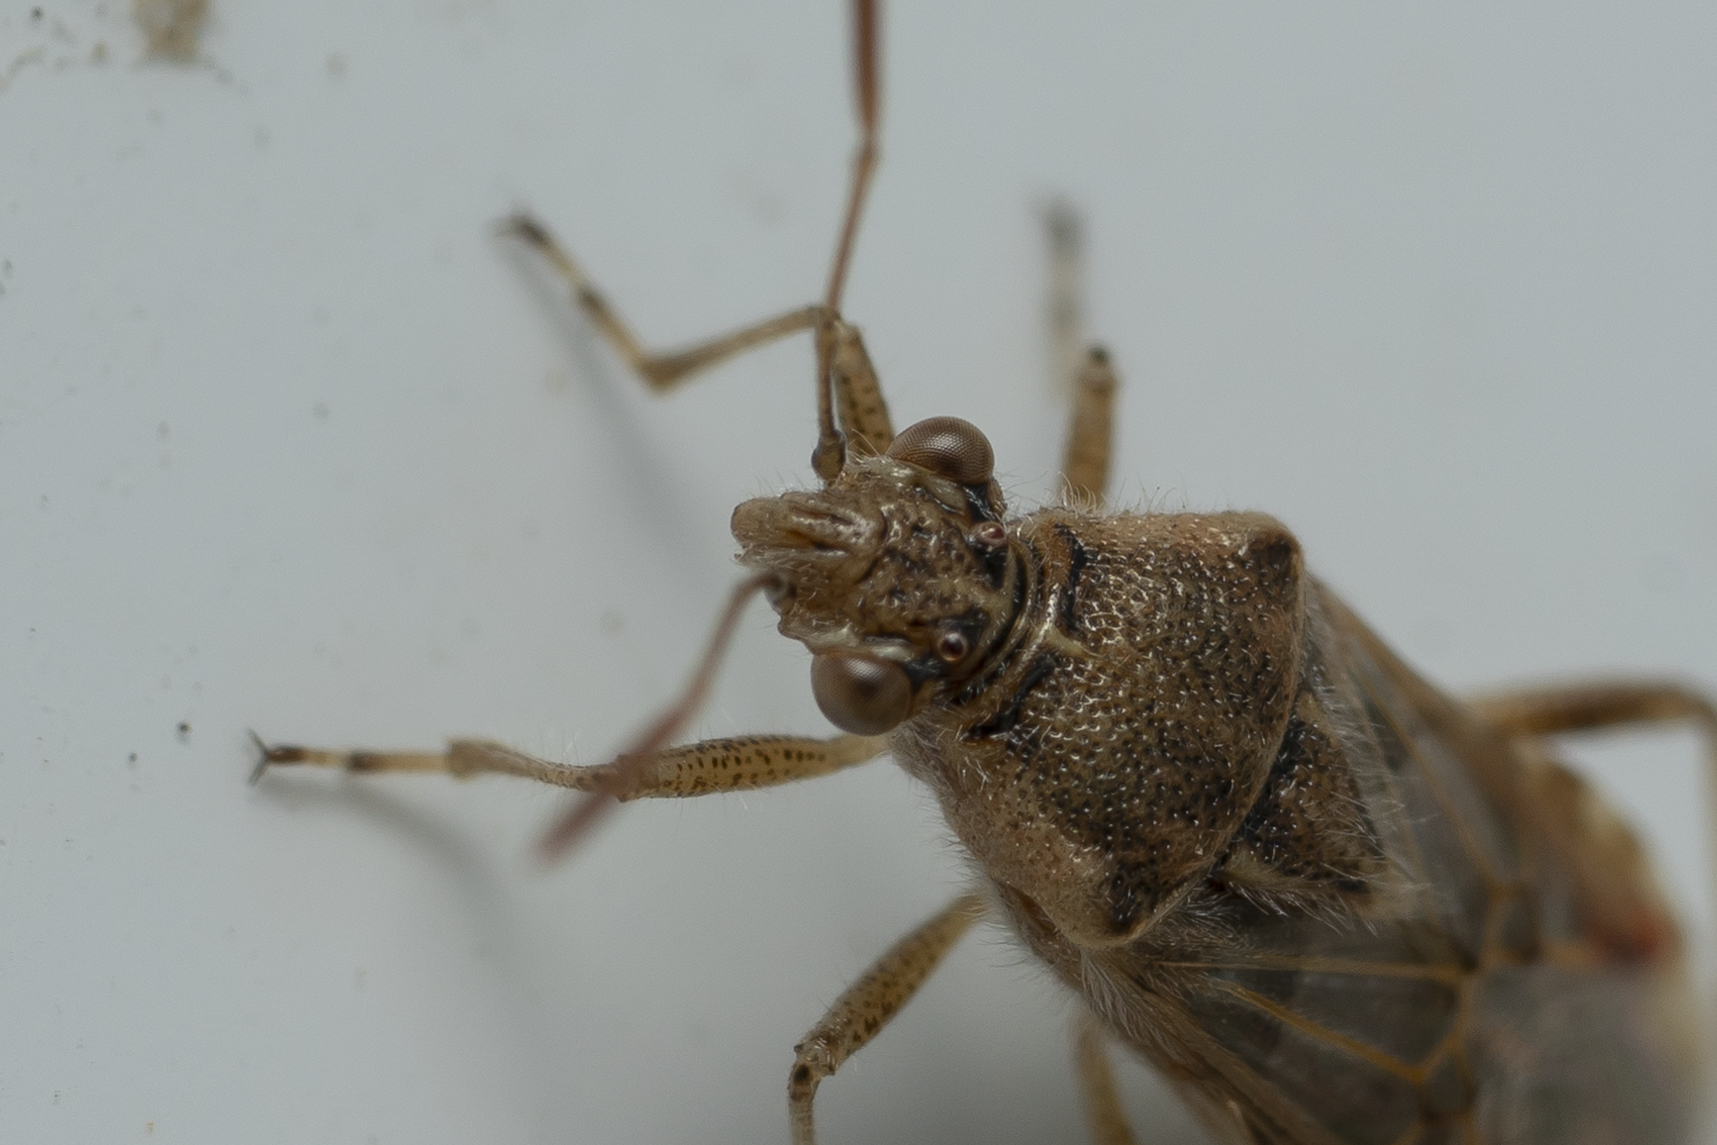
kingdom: Animalia
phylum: Arthropoda
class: Insecta
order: Hemiptera
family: Rhopalidae
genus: Liorhyssus
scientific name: Liorhyssus hyalinus
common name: Scentless plant bug
